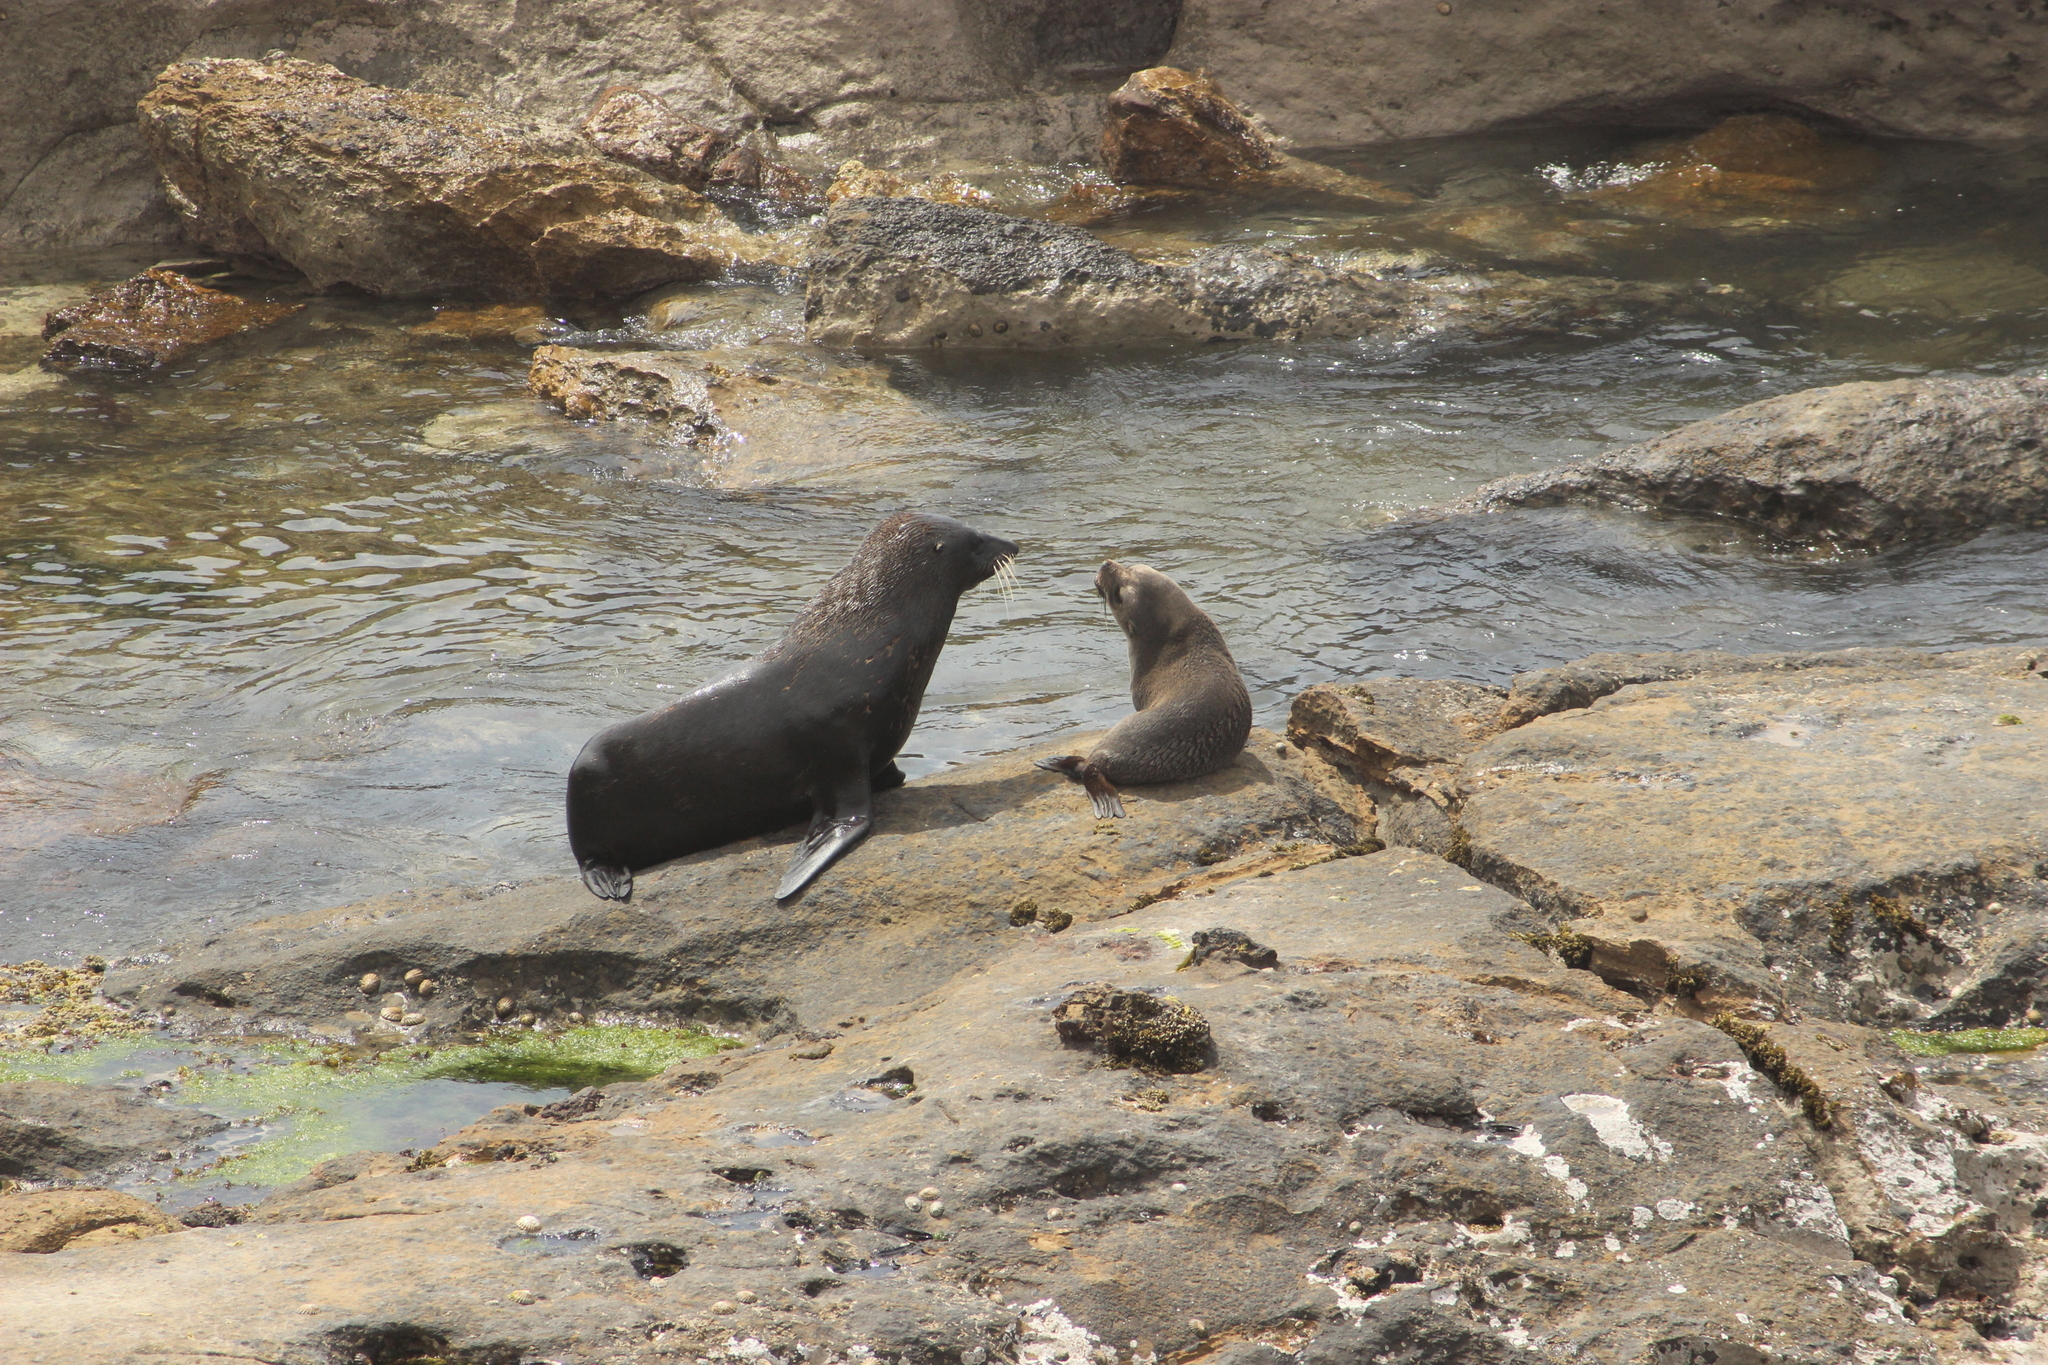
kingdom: Animalia
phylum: Chordata
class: Mammalia
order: Carnivora
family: Otariidae
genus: Arctocephalus
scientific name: Arctocephalus forsteri
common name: New zealand fur seal
